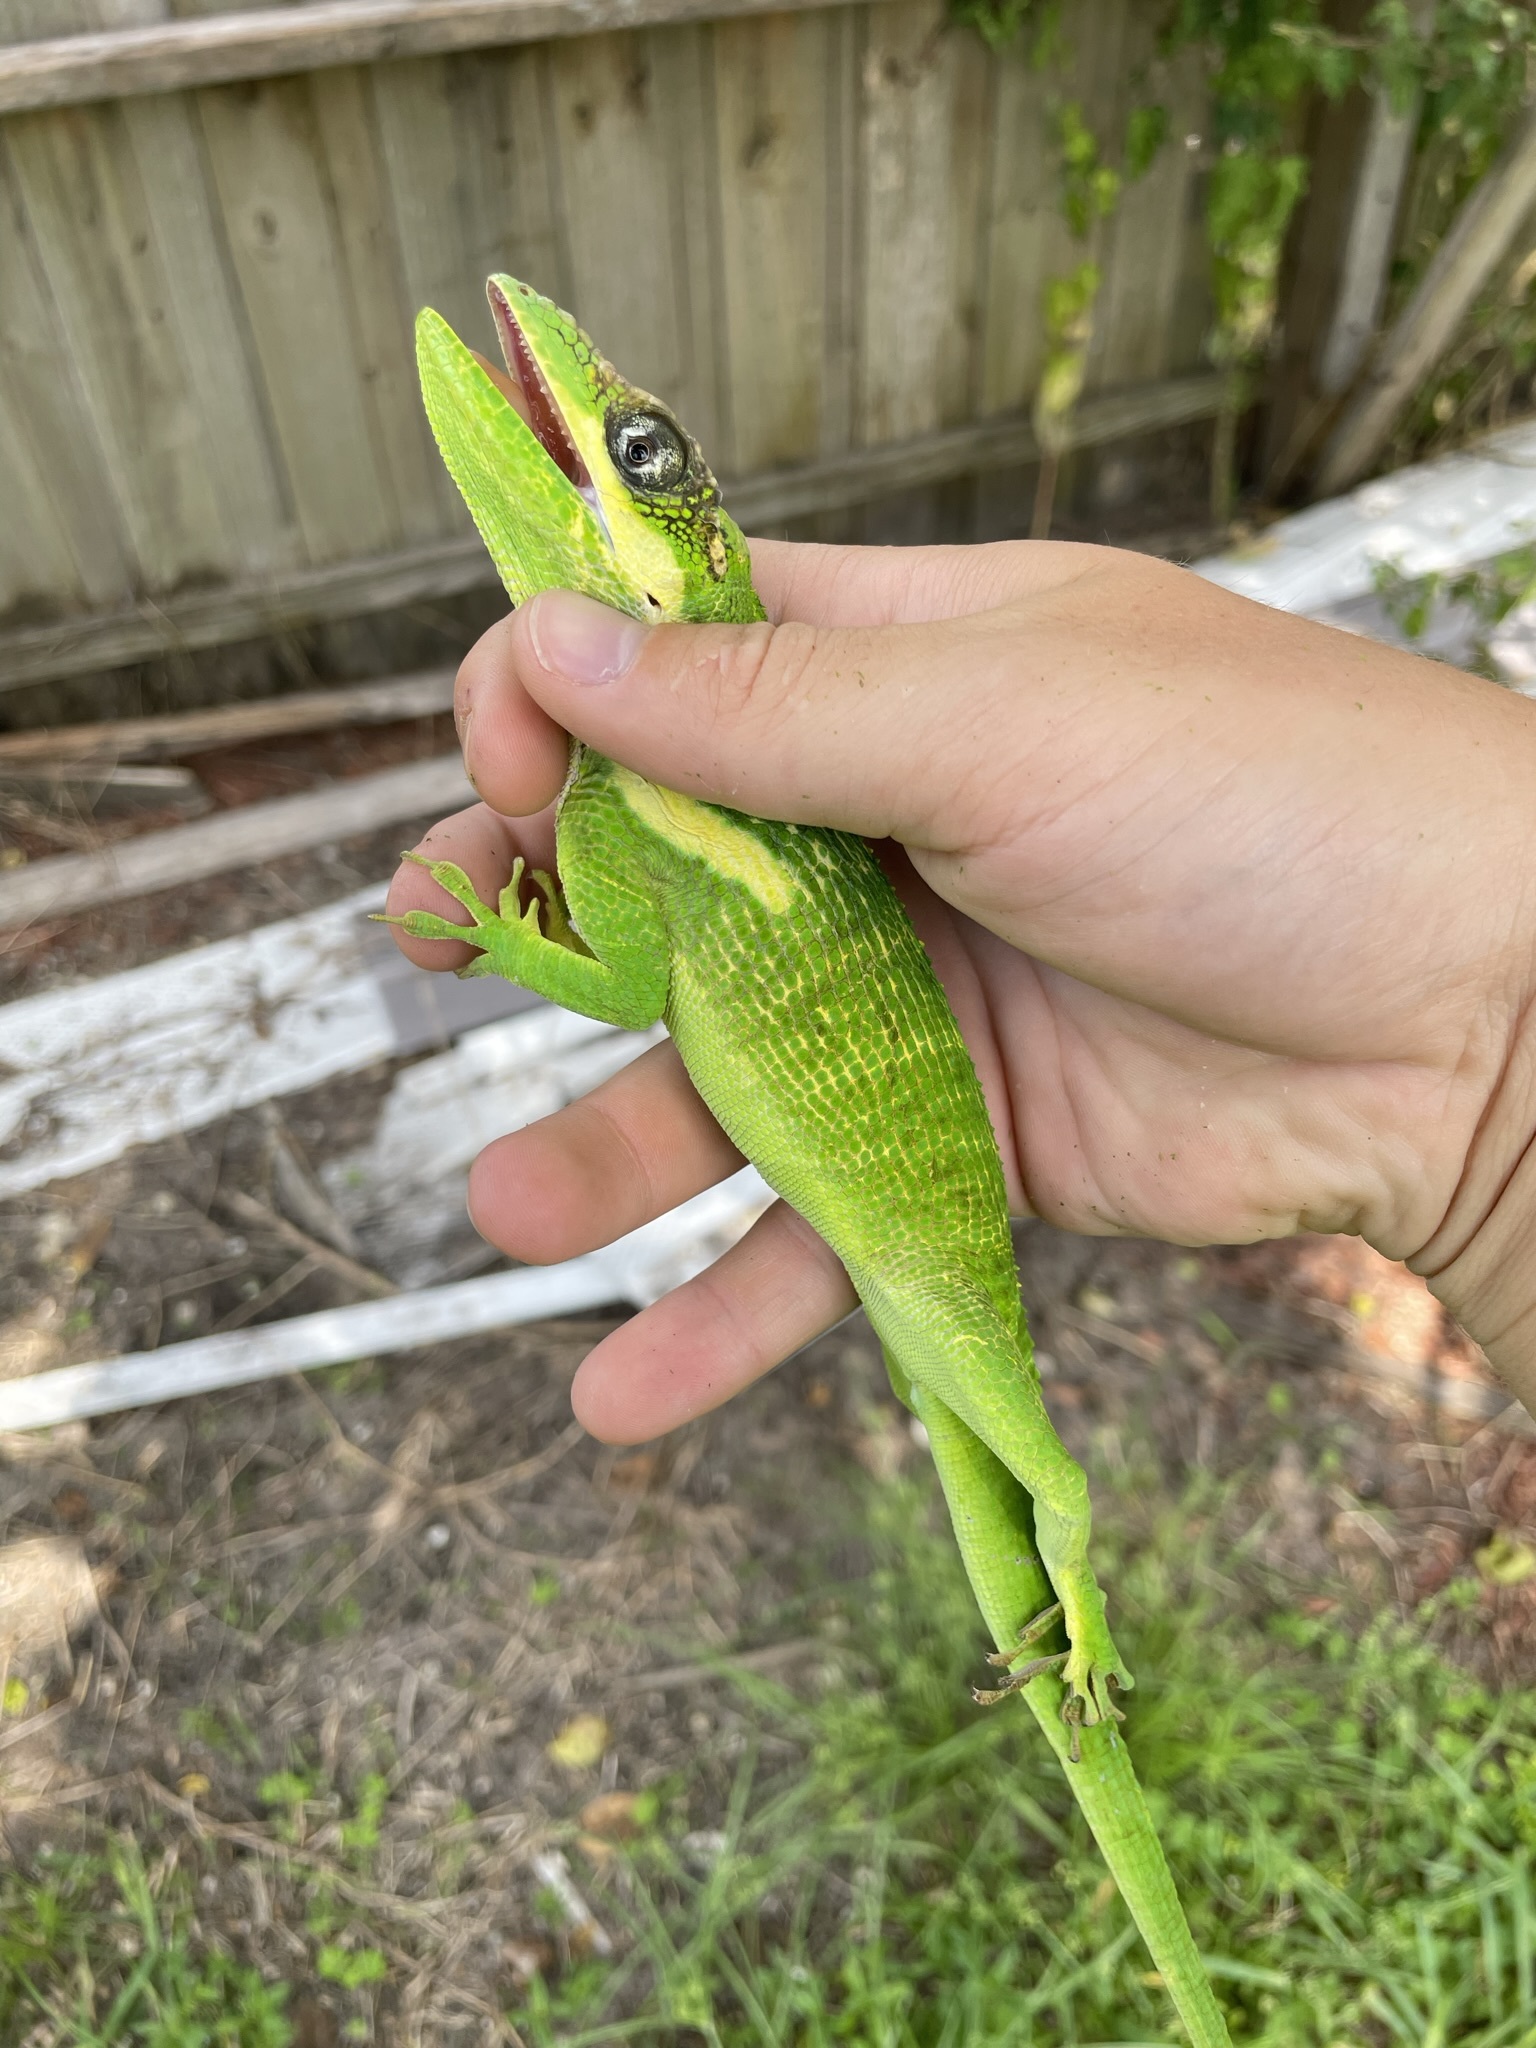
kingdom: Animalia
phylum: Chordata
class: Squamata
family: Dactyloidae
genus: Anolis
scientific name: Anolis equestris
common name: Knight anole
